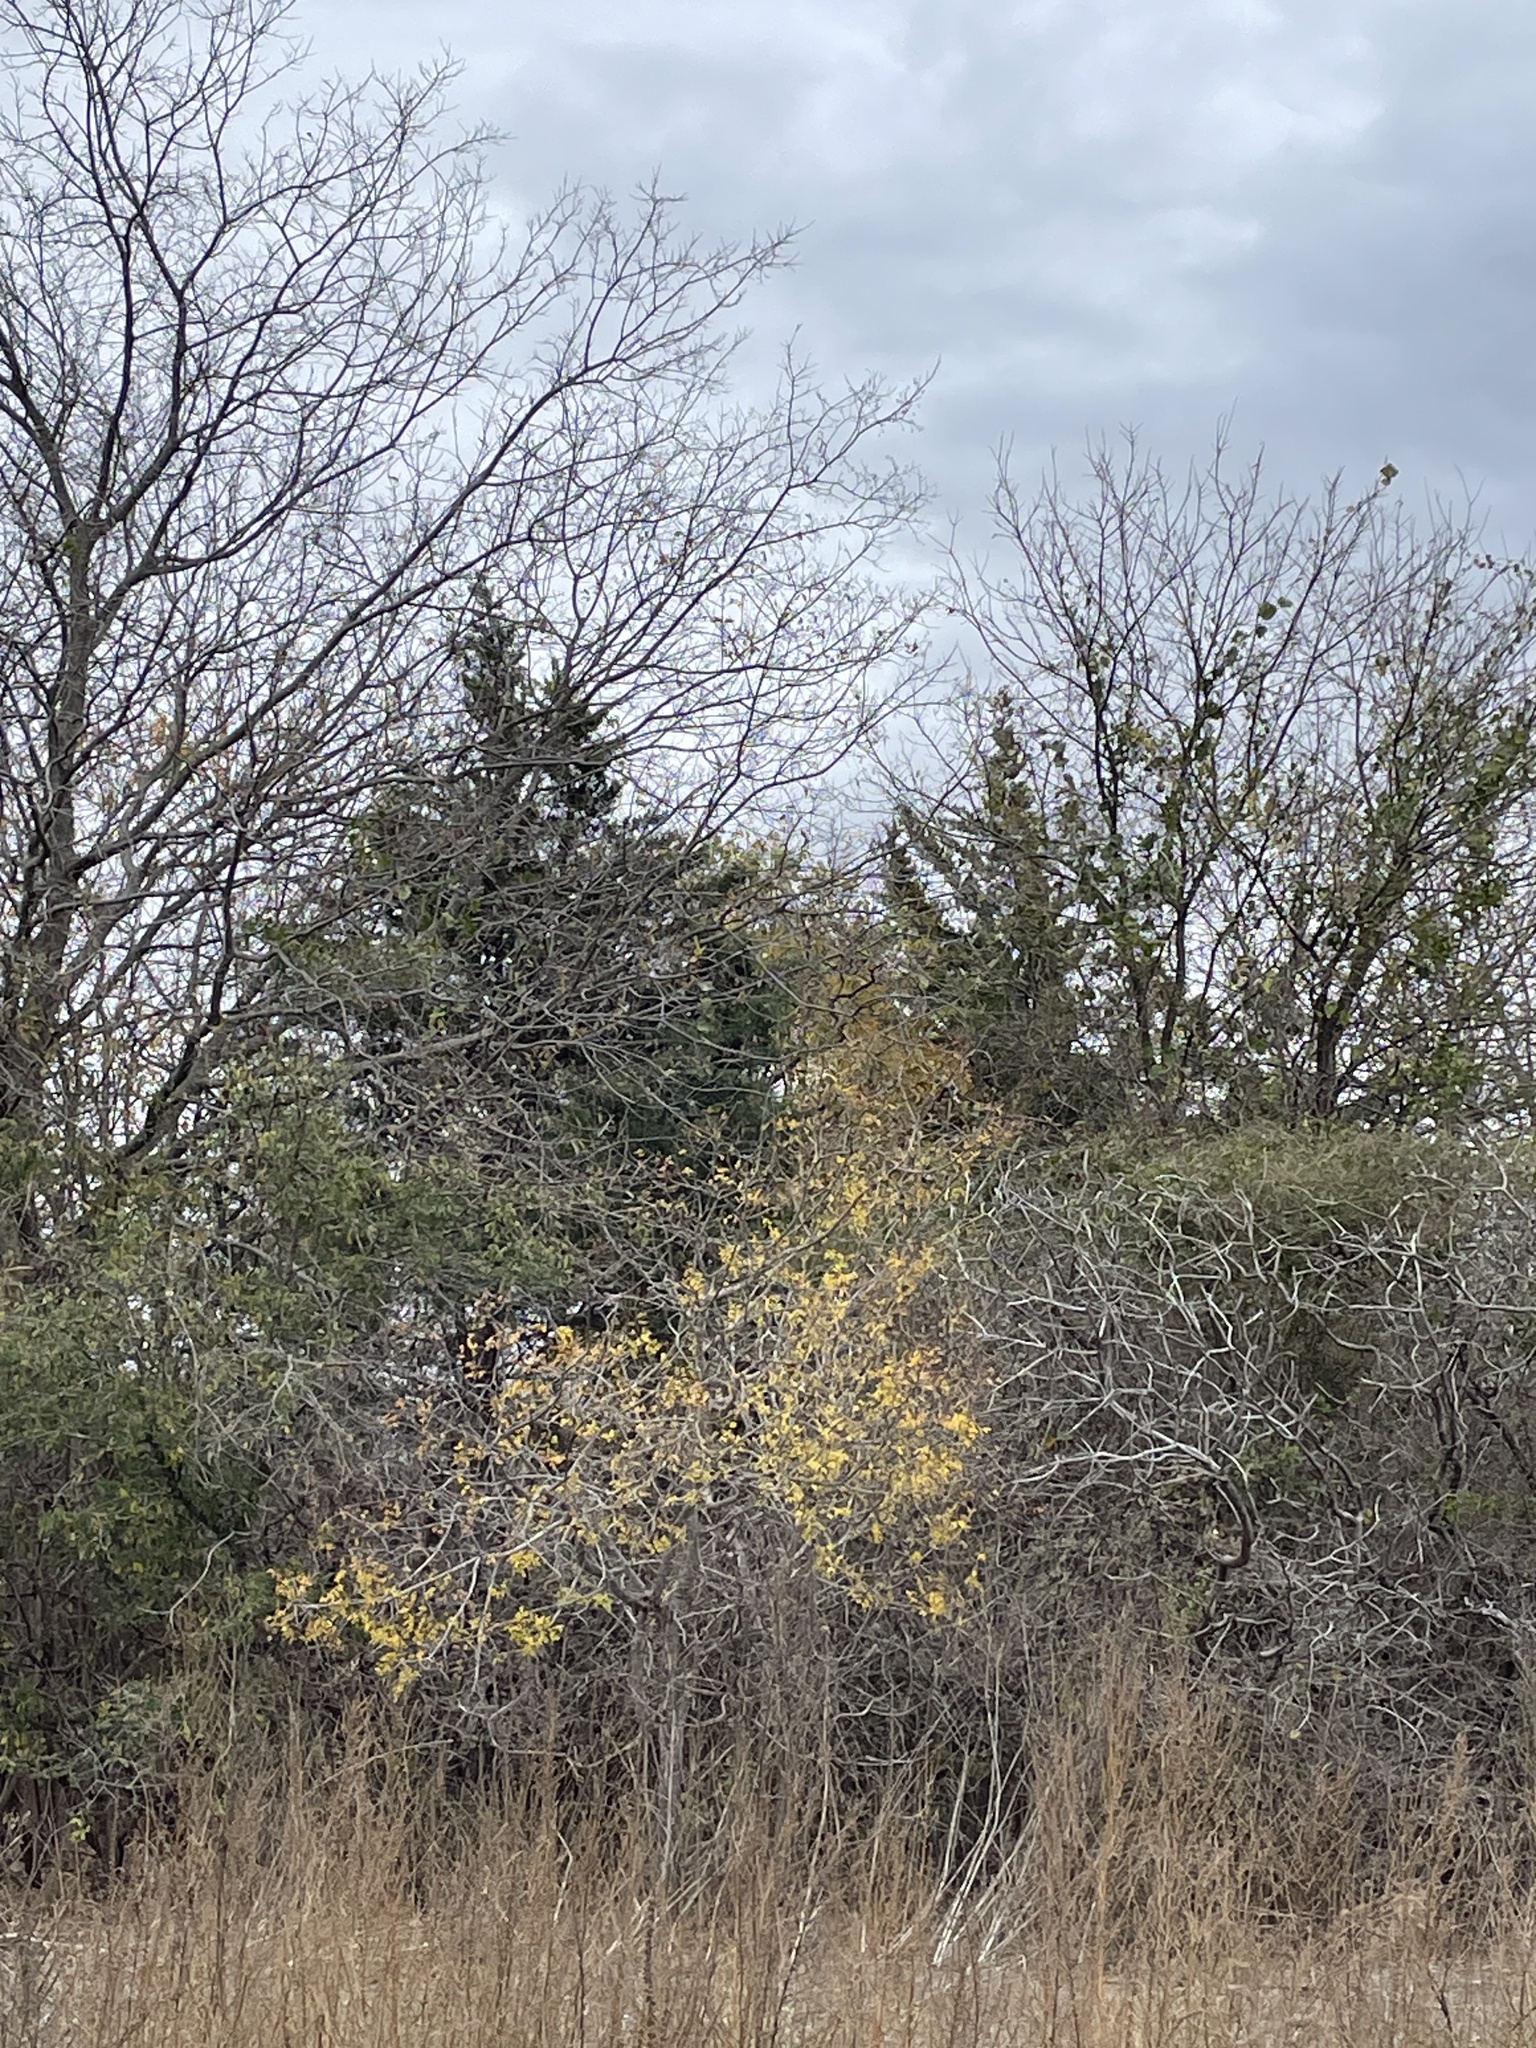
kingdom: Plantae
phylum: Tracheophyta
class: Pinopsida
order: Pinales
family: Cupressaceae
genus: Juniperus
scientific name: Juniperus virginiana
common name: Red juniper
